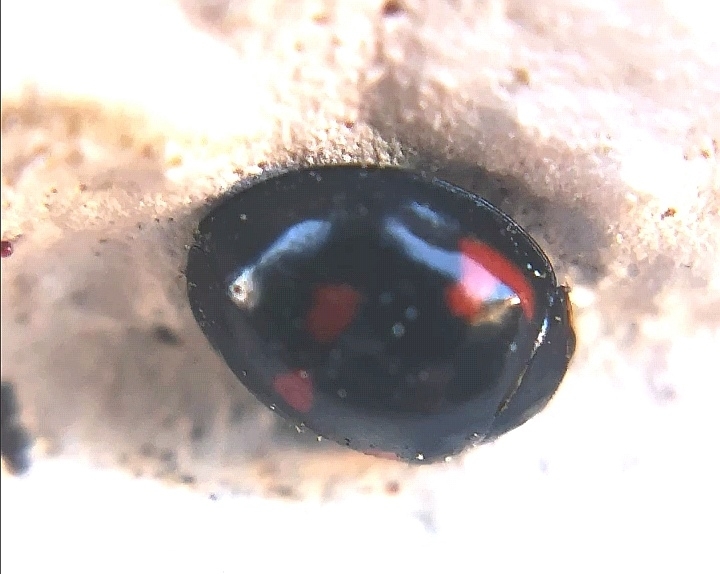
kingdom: Animalia
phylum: Arthropoda
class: Insecta
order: Coleoptera
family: Coccinellidae
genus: Brumus
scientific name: Brumus quadripustulatus
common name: Ladybird beetle
